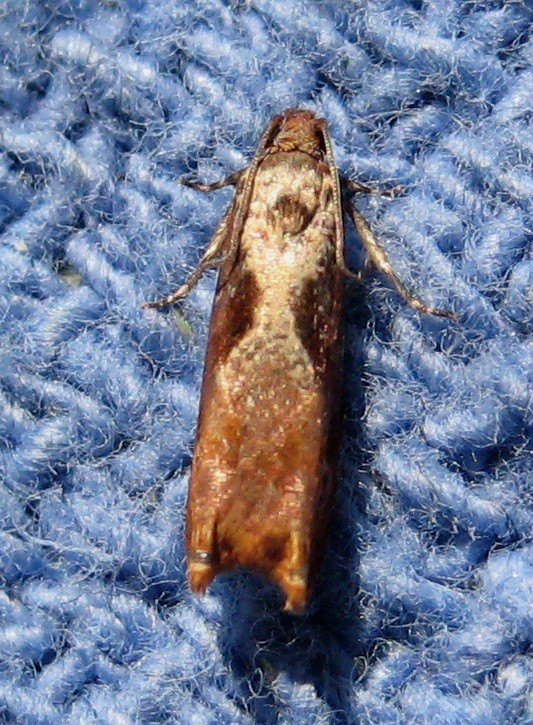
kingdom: Animalia
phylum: Arthropoda
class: Insecta
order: Lepidoptera
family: Tortricidae
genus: Episimus
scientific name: Episimus tyrius
